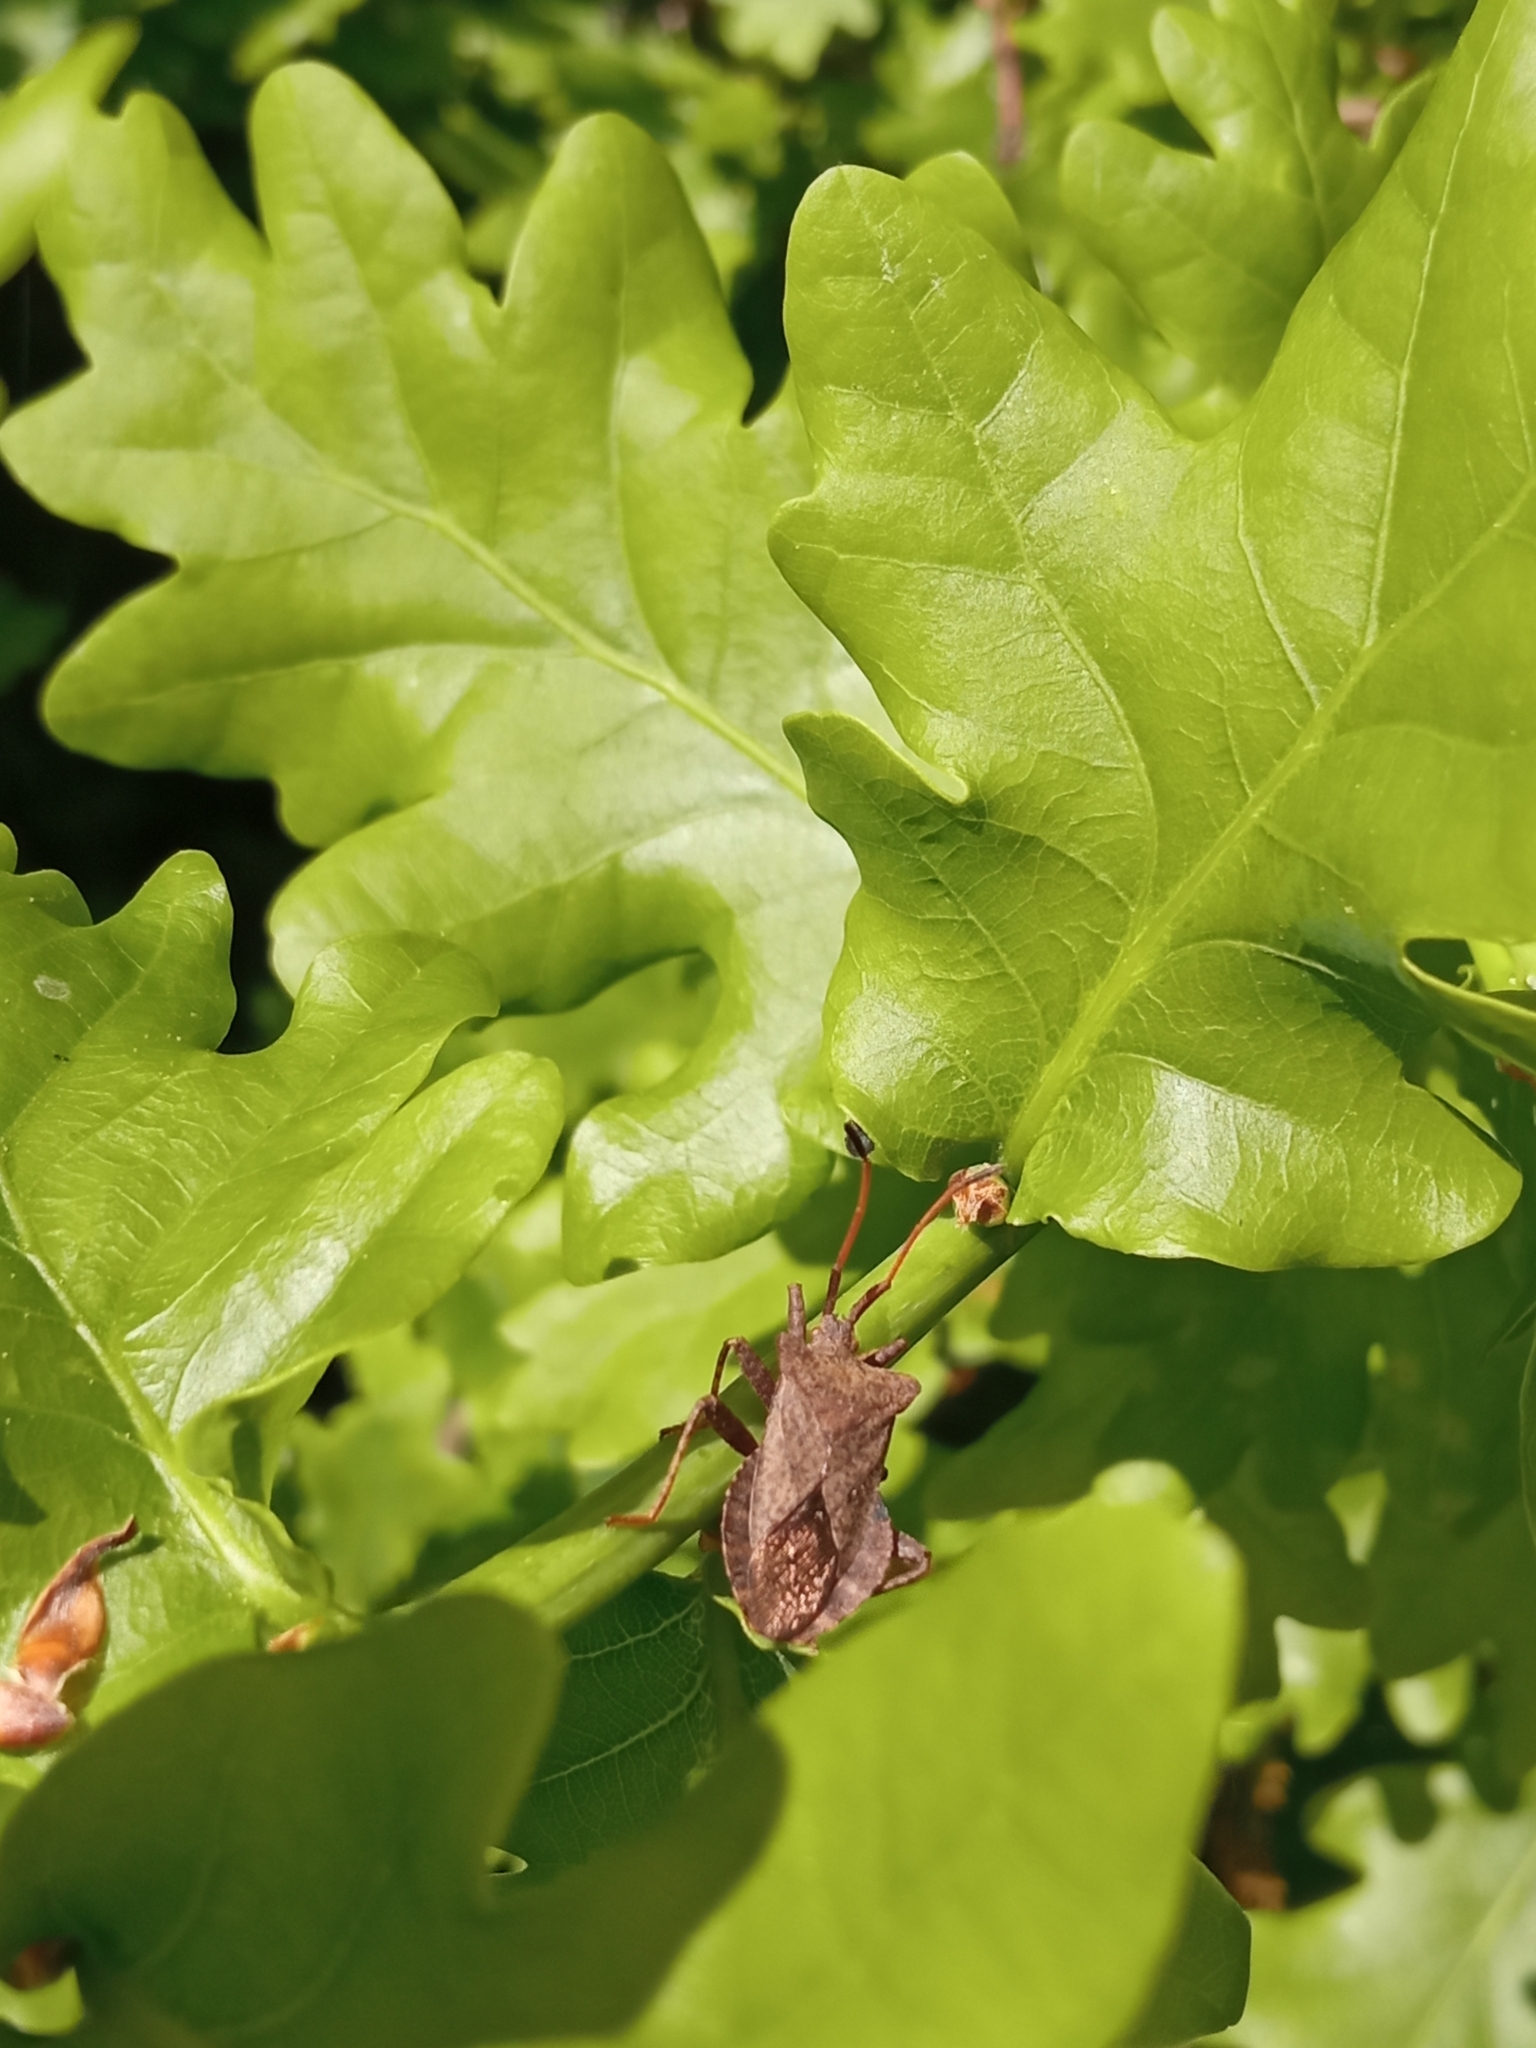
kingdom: Animalia
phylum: Arthropoda
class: Insecta
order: Hemiptera
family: Coreidae
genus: Coreus
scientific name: Coreus marginatus
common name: Dock bug
